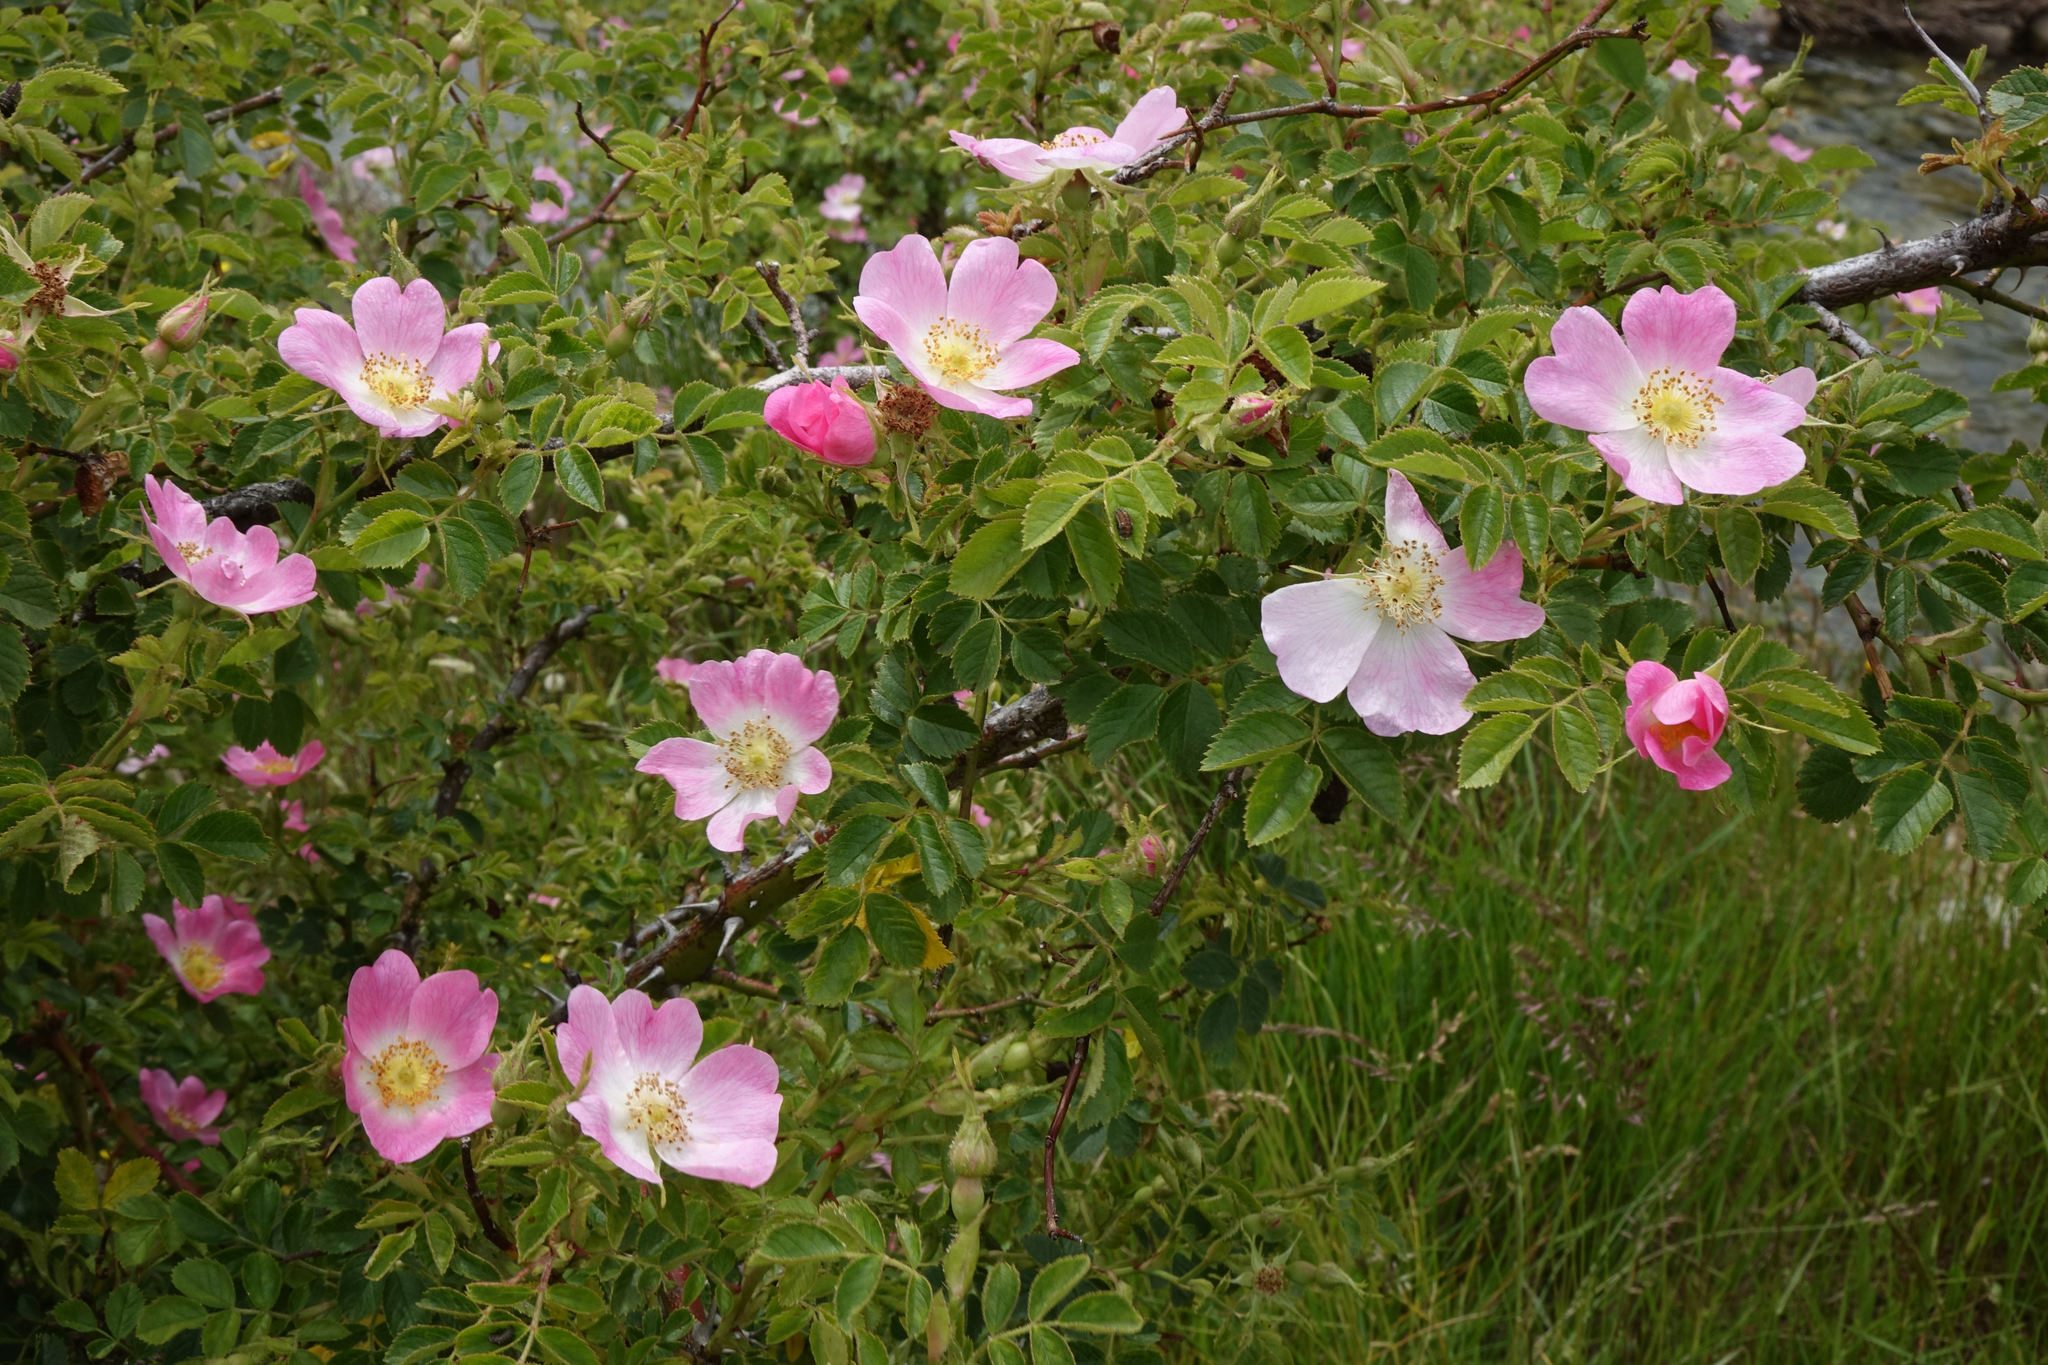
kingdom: Plantae
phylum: Tracheophyta
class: Magnoliopsida
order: Rosales
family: Rosaceae
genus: Rosa
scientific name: Rosa rubiginosa
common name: Sweet-briar
